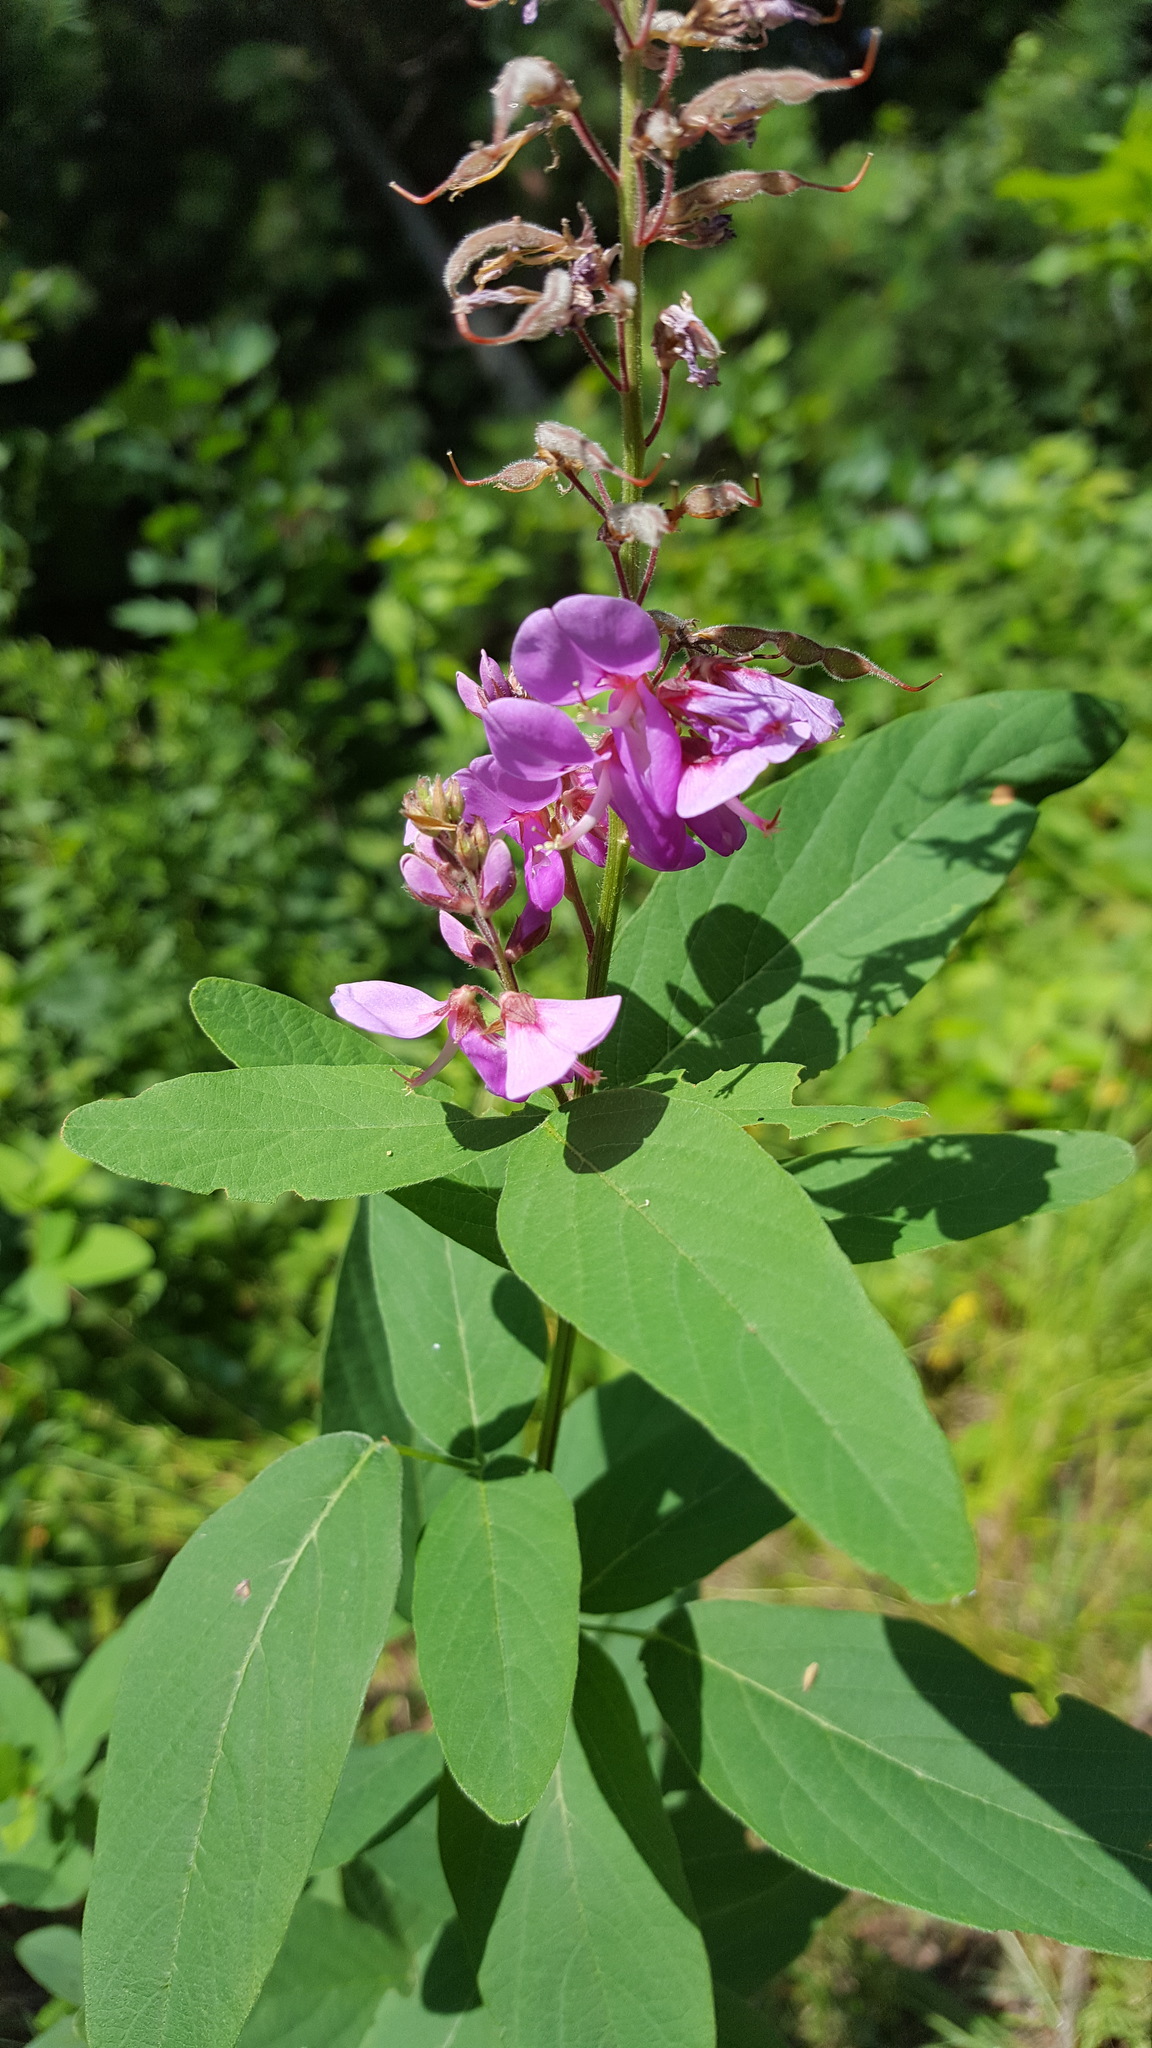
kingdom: Plantae
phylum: Tracheophyta
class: Magnoliopsida
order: Fabales
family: Fabaceae
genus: Desmodium
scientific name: Desmodium canadense
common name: Canada tick-trefoil
